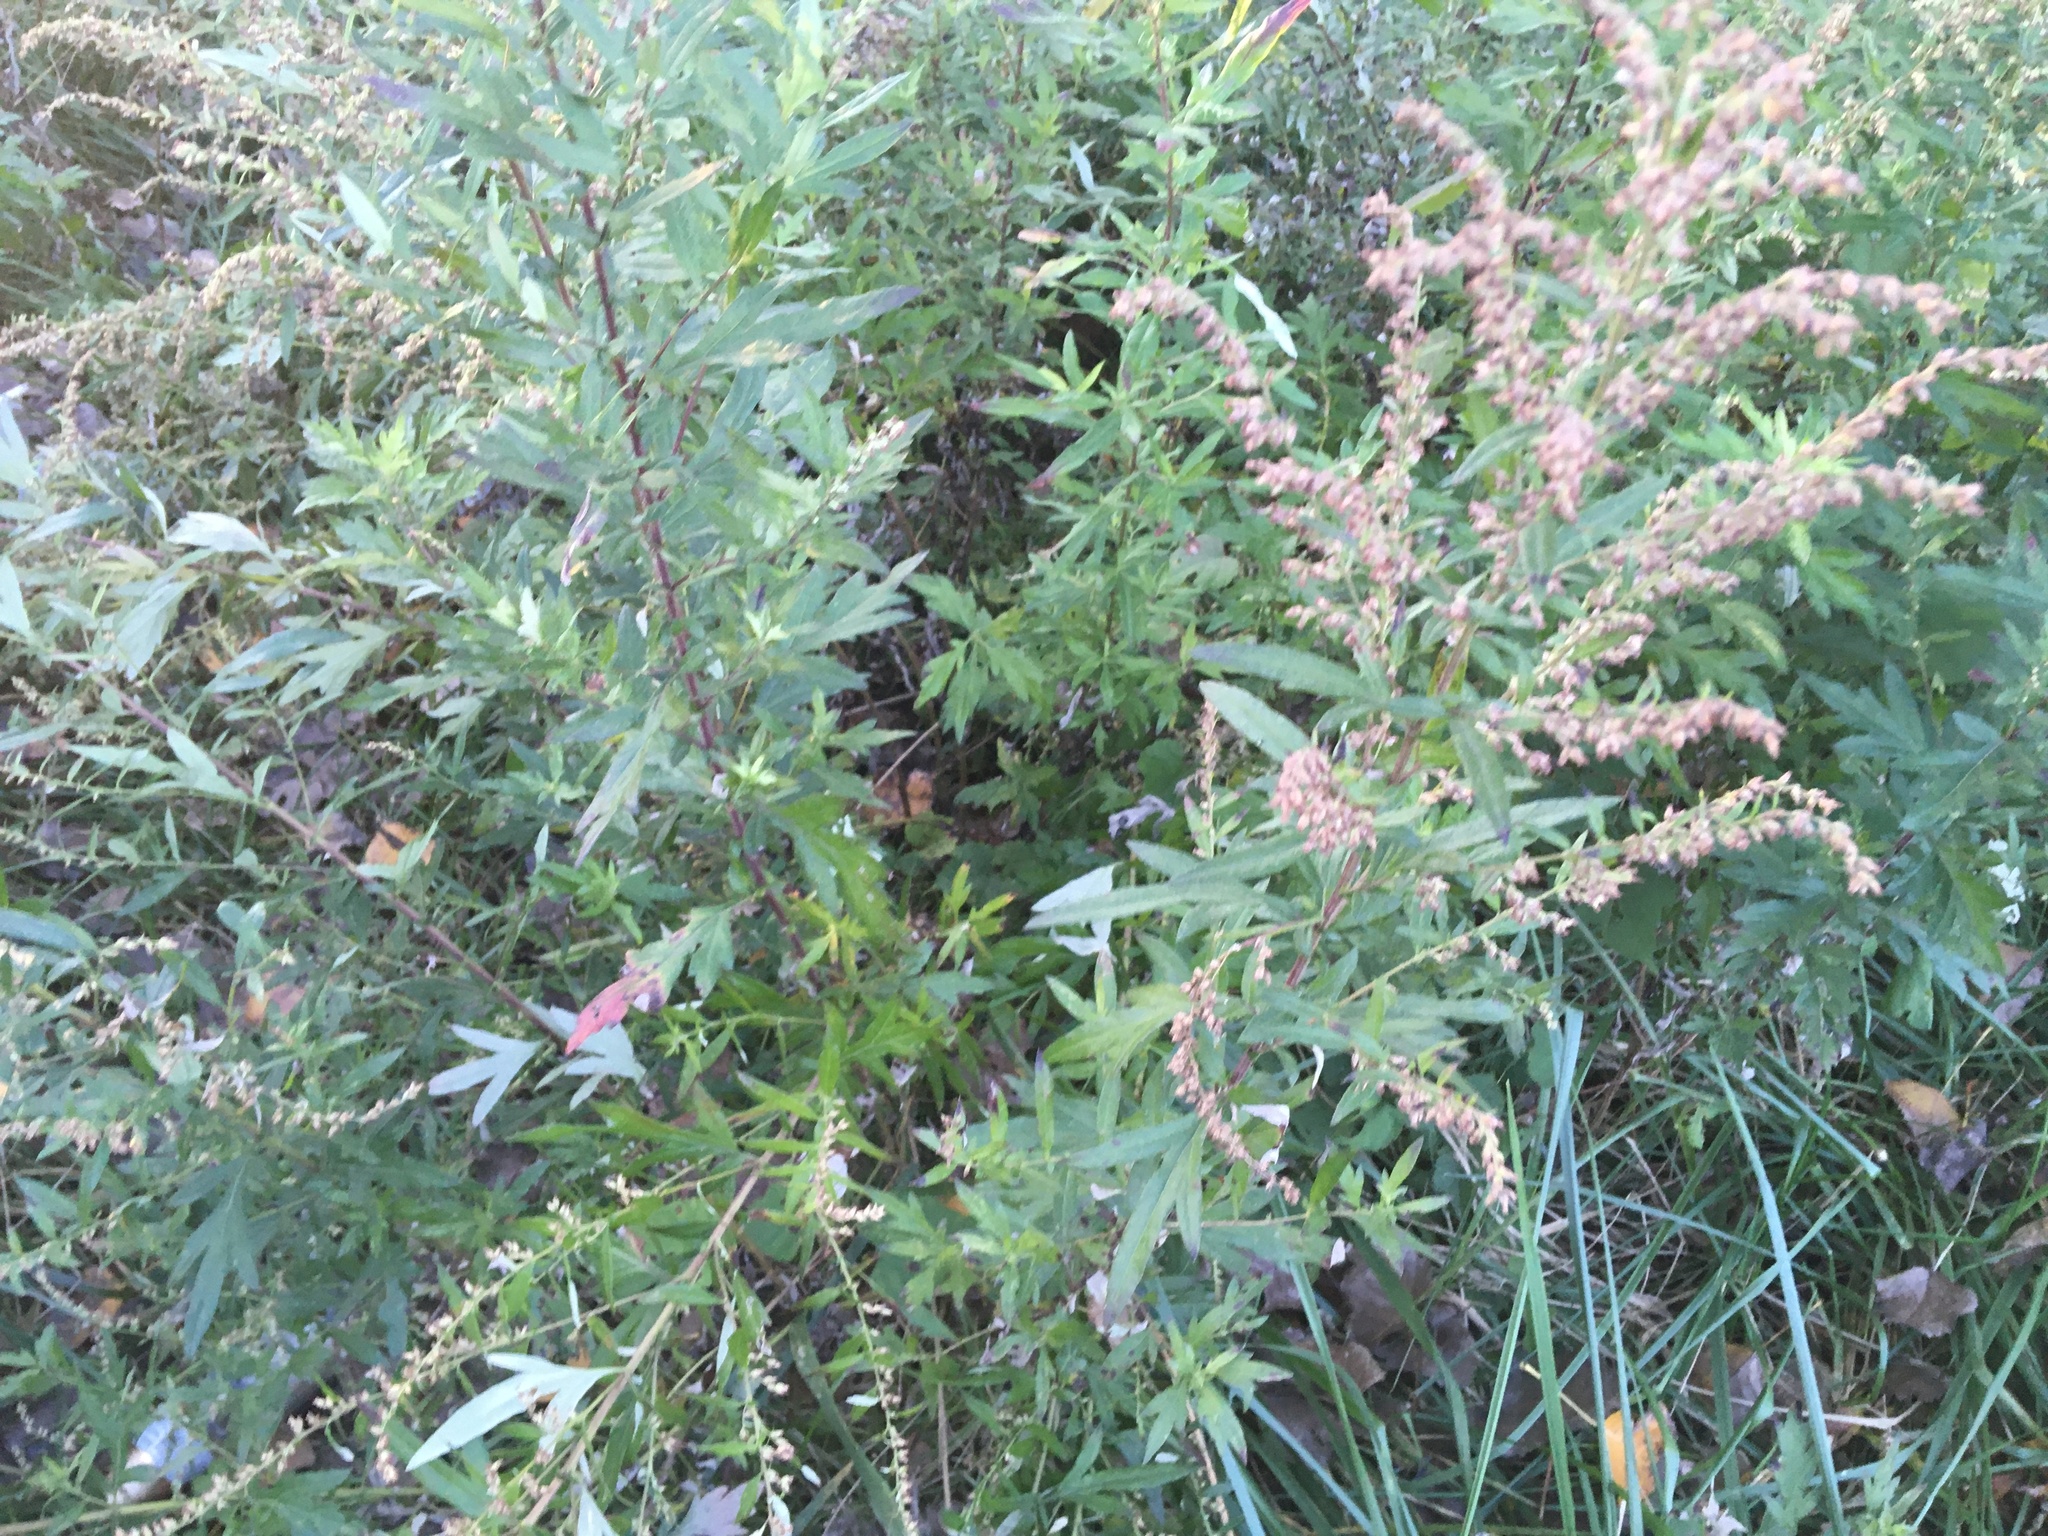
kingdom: Plantae
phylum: Tracheophyta
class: Magnoliopsida
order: Asterales
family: Asteraceae
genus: Artemisia
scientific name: Artemisia vulgaris
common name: Mugwort
